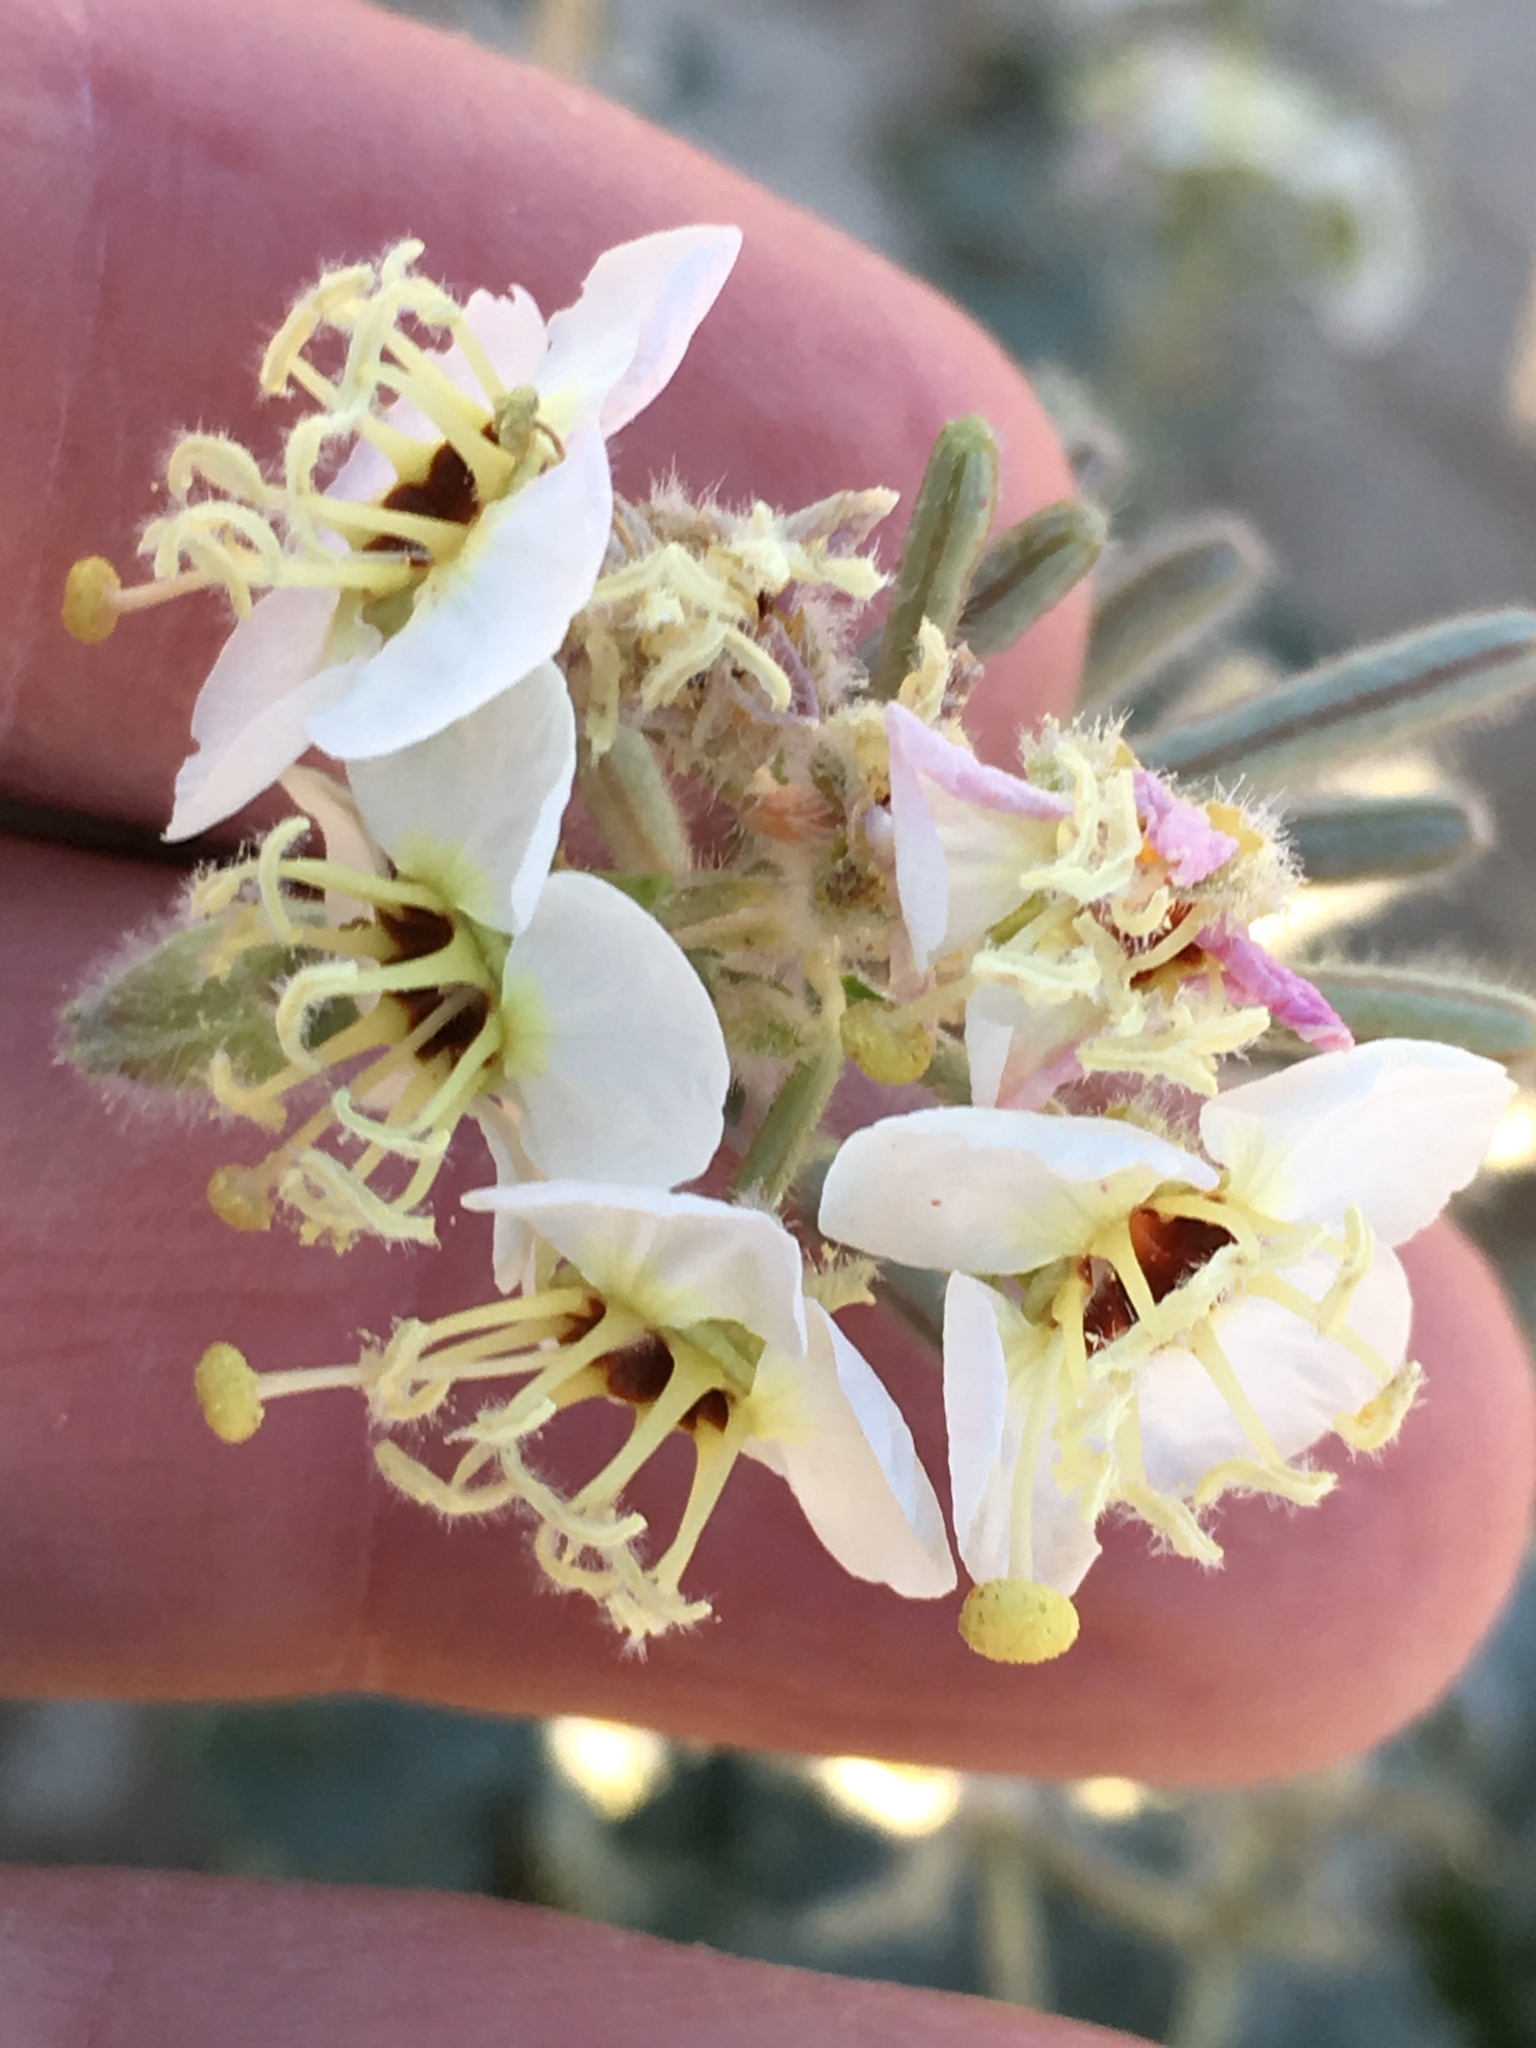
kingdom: Plantae
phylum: Tracheophyta
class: Magnoliopsida
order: Myrtales
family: Onagraceae
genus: Chylismia
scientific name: Chylismia claviformis
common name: Browneyes
